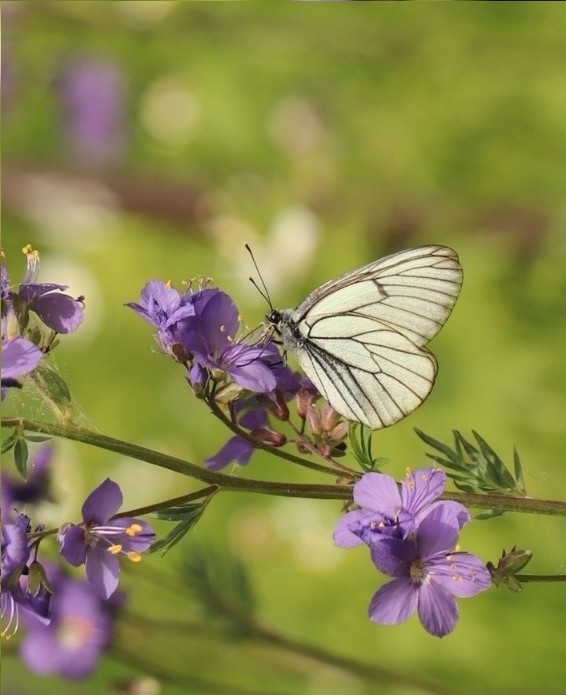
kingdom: Animalia
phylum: Arthropoda
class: Insecta
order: Lepidoptera
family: Pieridae
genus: Aporia
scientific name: Aporia crataegi
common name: Black-veined white
